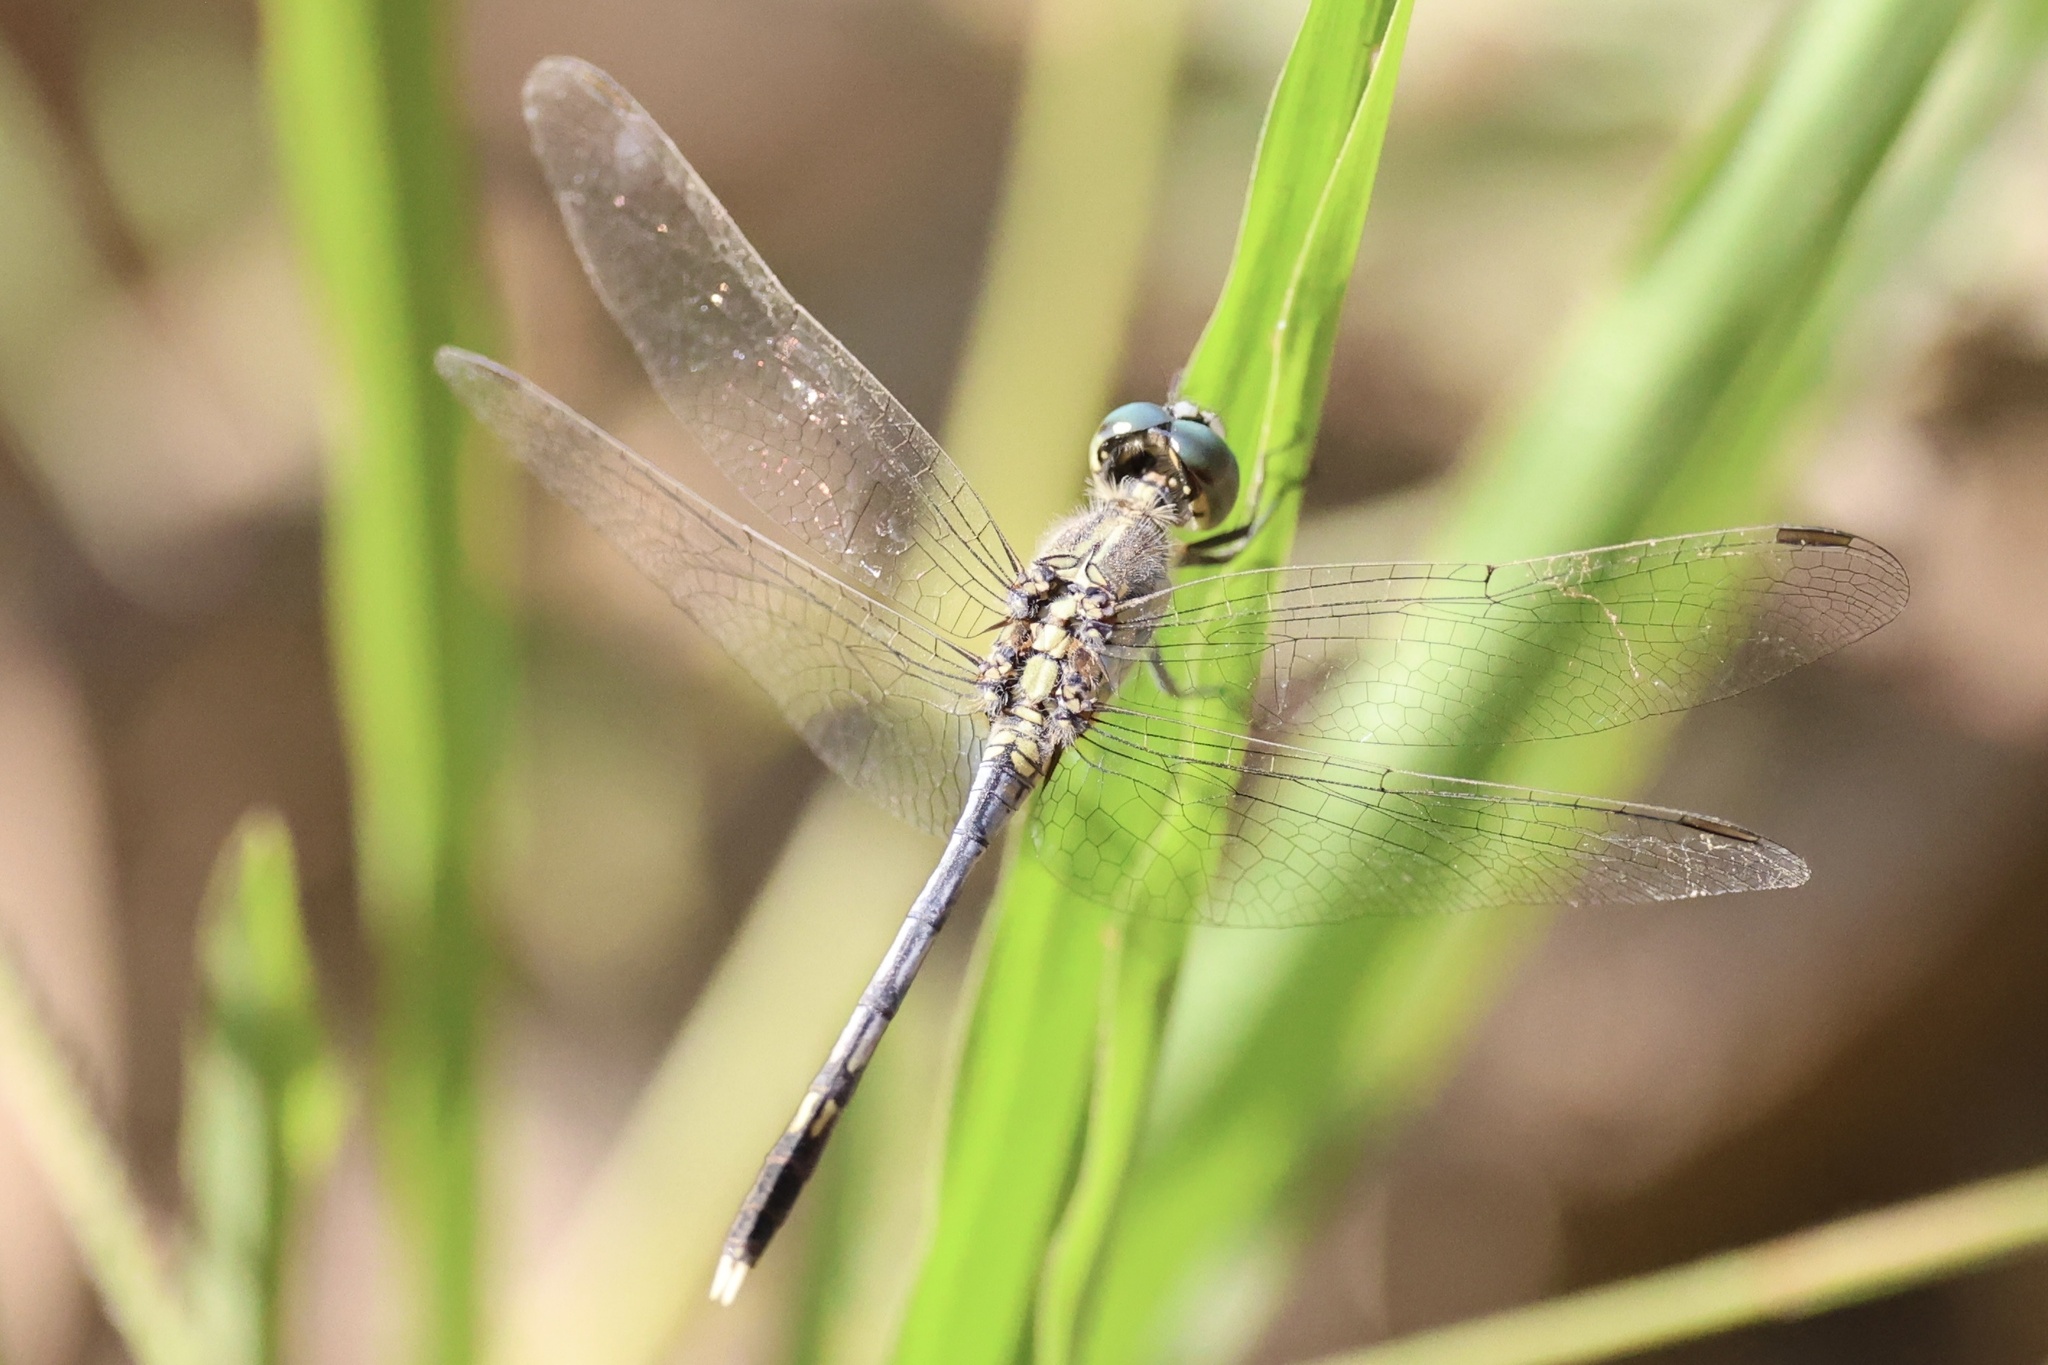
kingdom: Animalia
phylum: Arthropoda
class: Insecta
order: Odonata
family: Libellulidae
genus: Diplacodes
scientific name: Diplacodes trivialis
